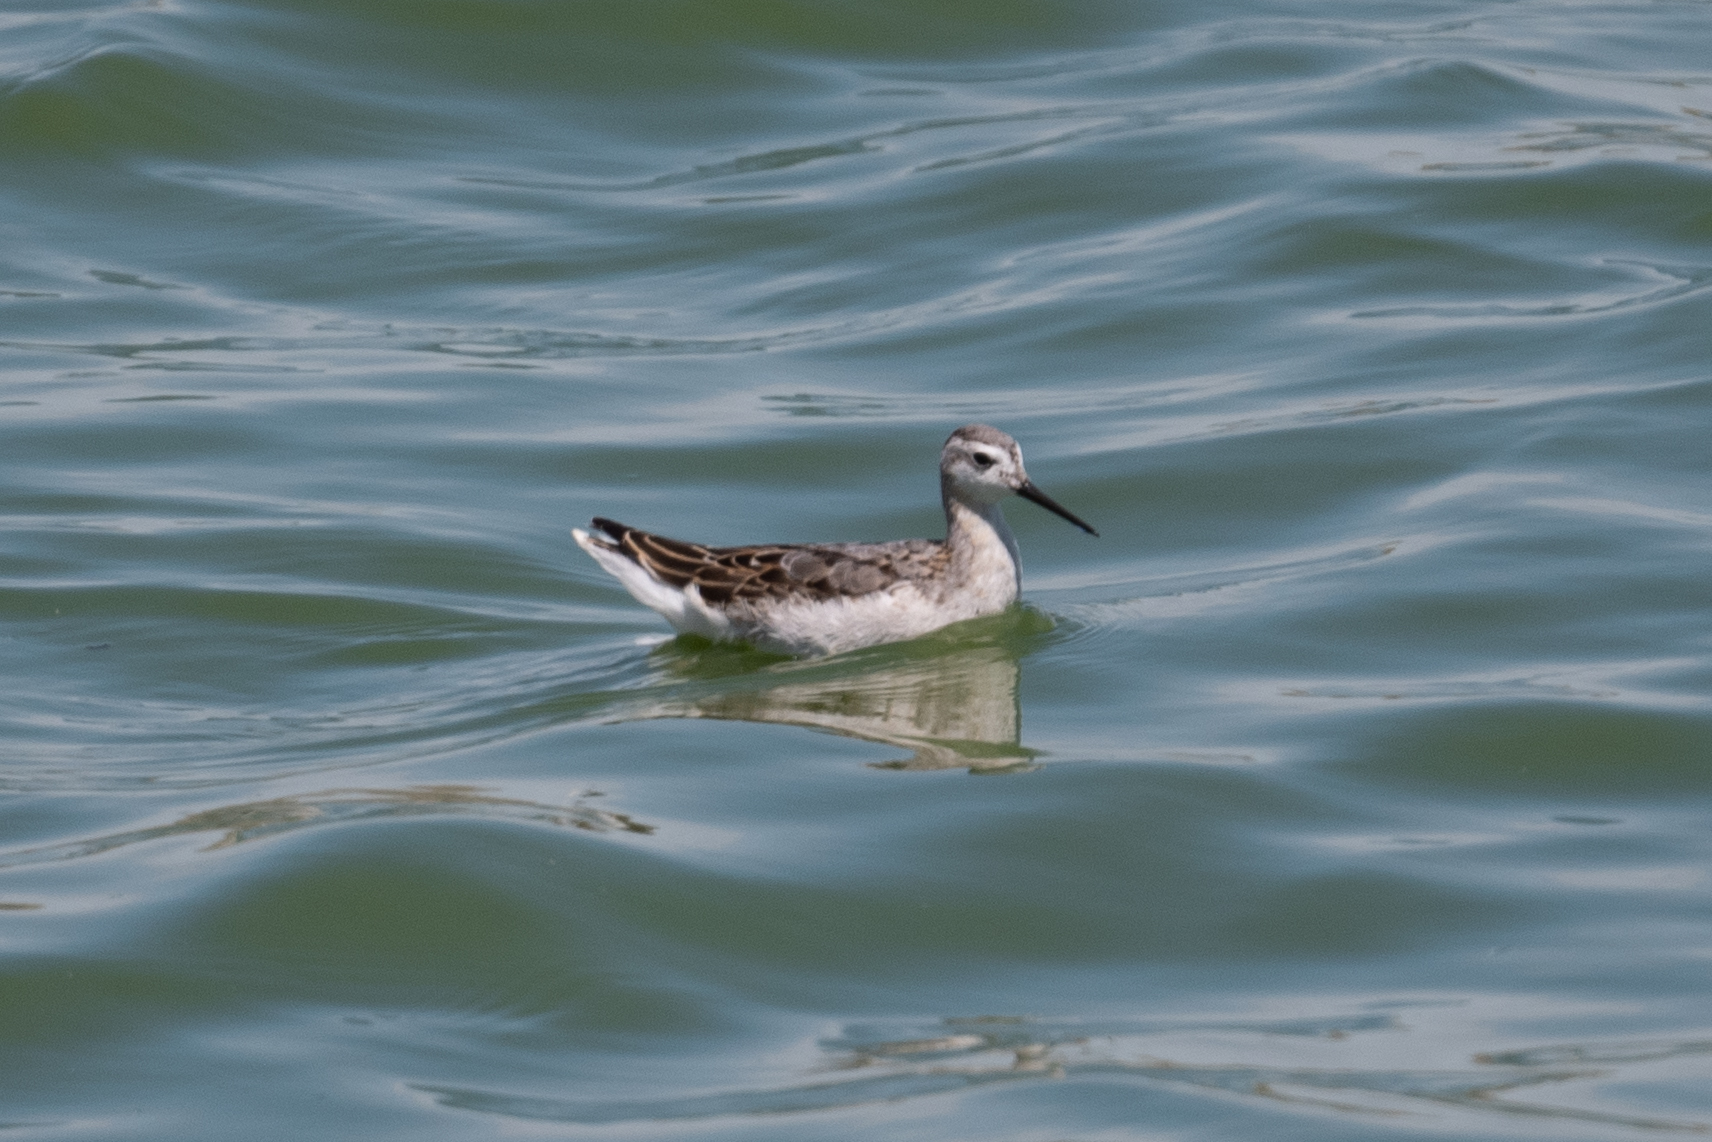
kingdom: Animalia
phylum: Chordata
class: Aves
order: Charadriiformes
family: Scolopacidae
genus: Phalaropus
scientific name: Phalaropus tricolor
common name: Wilson's phalarope
